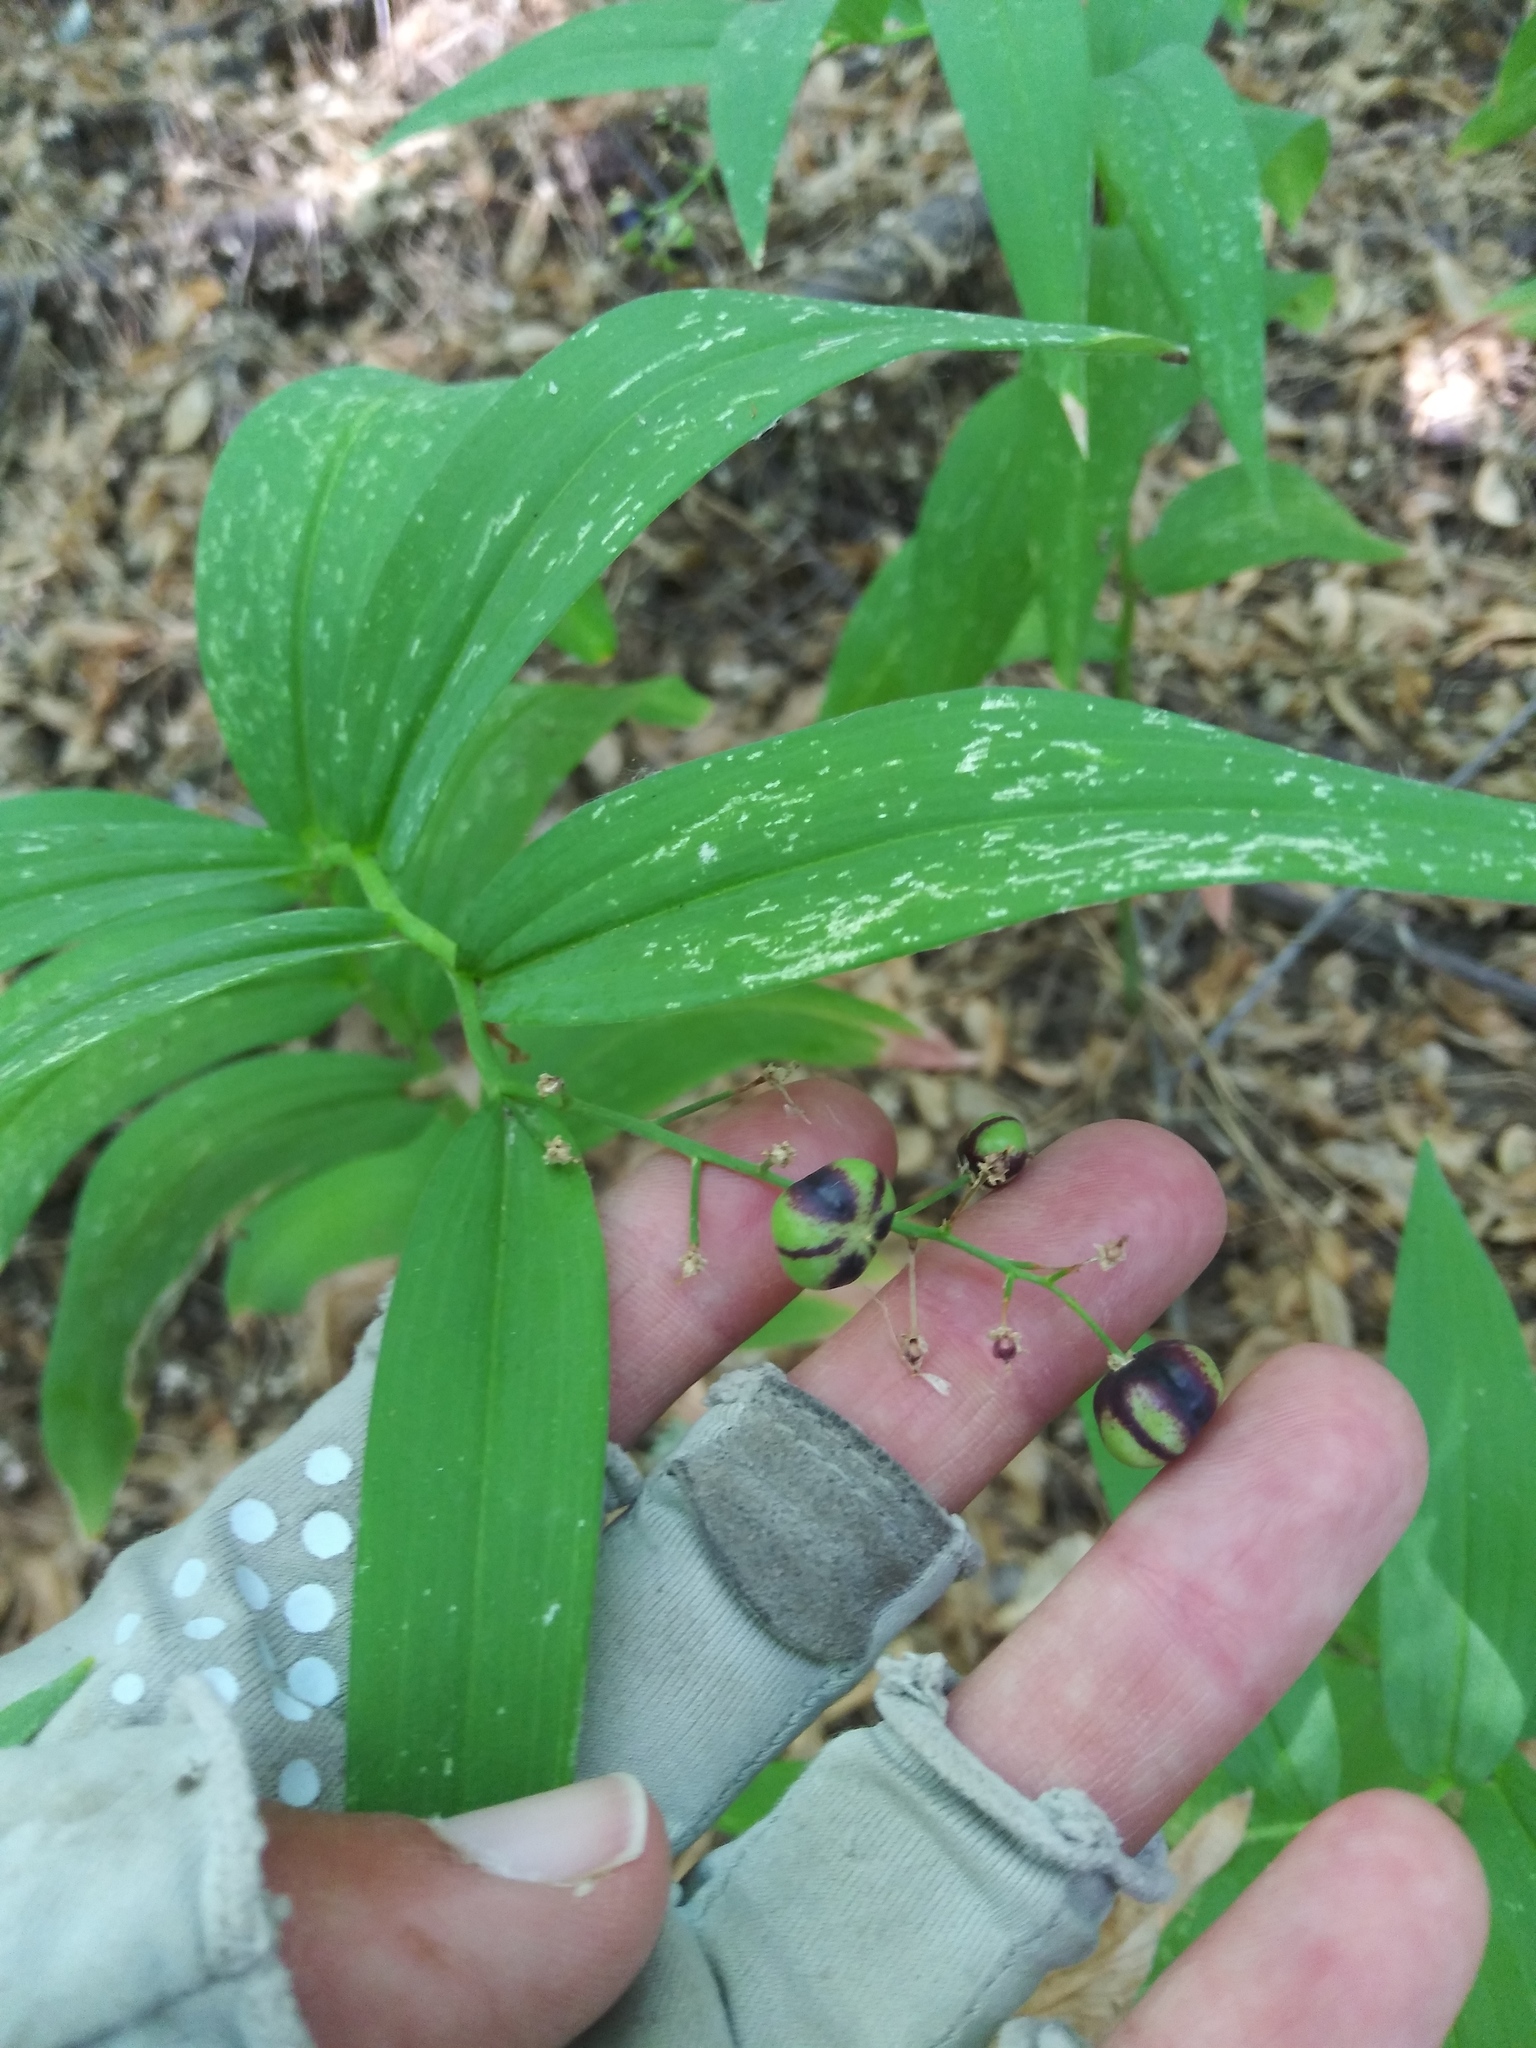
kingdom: Plantae
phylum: Tracheophyta
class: Liliopsida
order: Asparagales
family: Asparagaceae
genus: Maianthemum
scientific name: Maianthemum stellatum
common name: Little false solomon's seal
